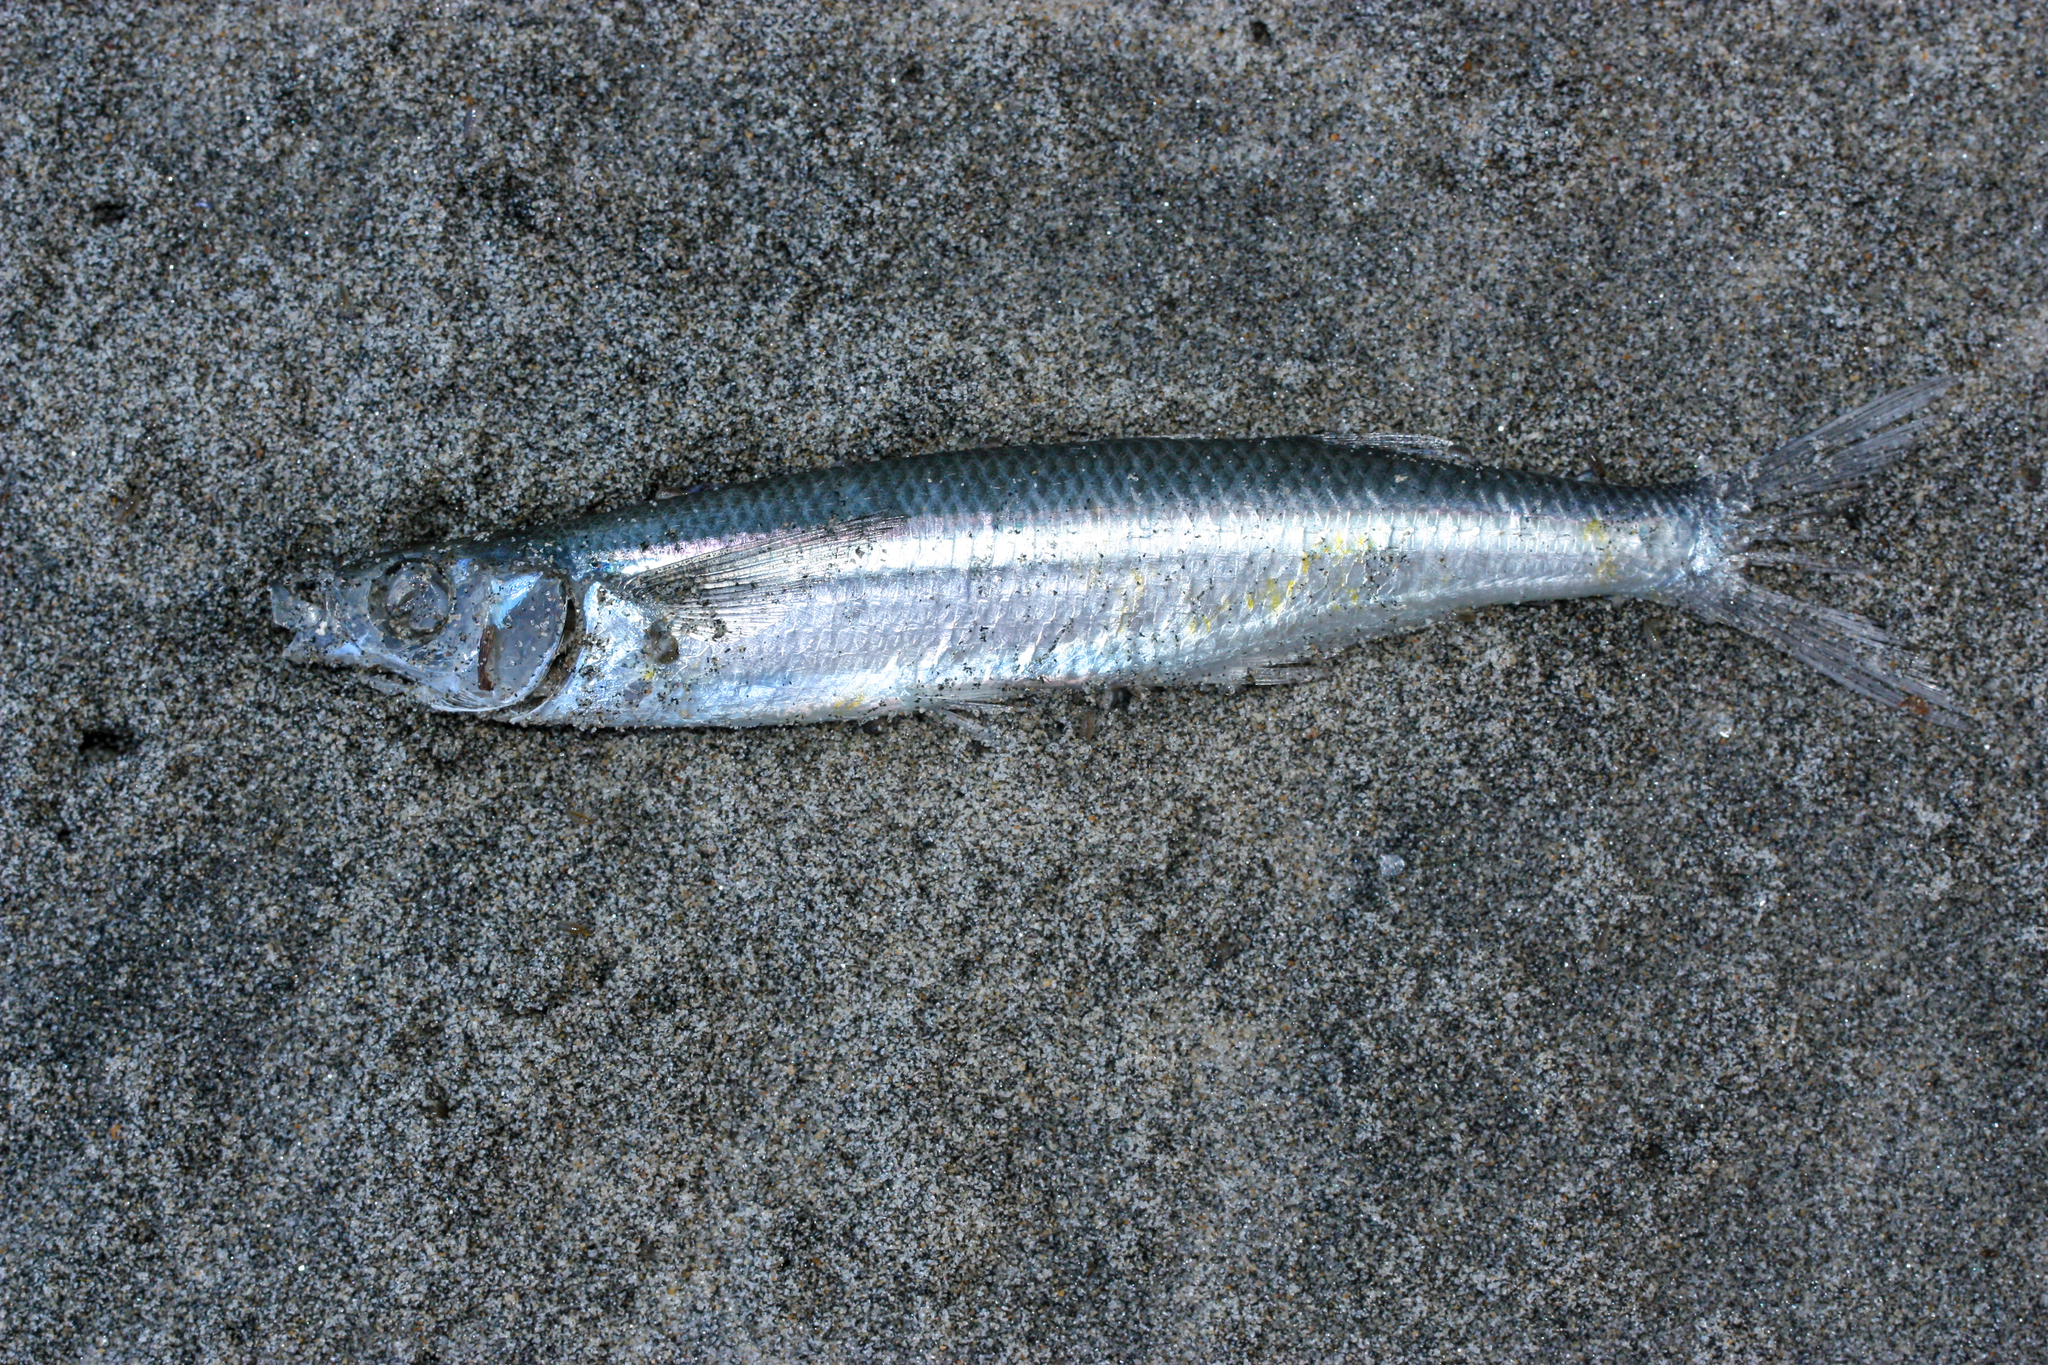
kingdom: Animalia
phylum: Chordata
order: Atheriniformes
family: Atherinopsidae
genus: Atherinops
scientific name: Atherinops affinis
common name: Topsmelt
